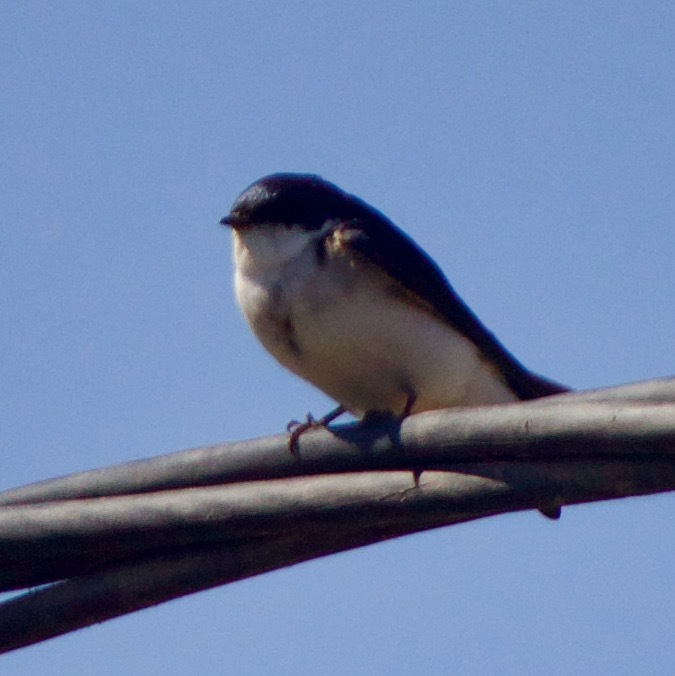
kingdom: Animalia
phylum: Chordata
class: Aves
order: Passeriformes
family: Hirundinidae
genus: Tachycineta
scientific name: Tachycineta leucopyga
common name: Chilean swallow
